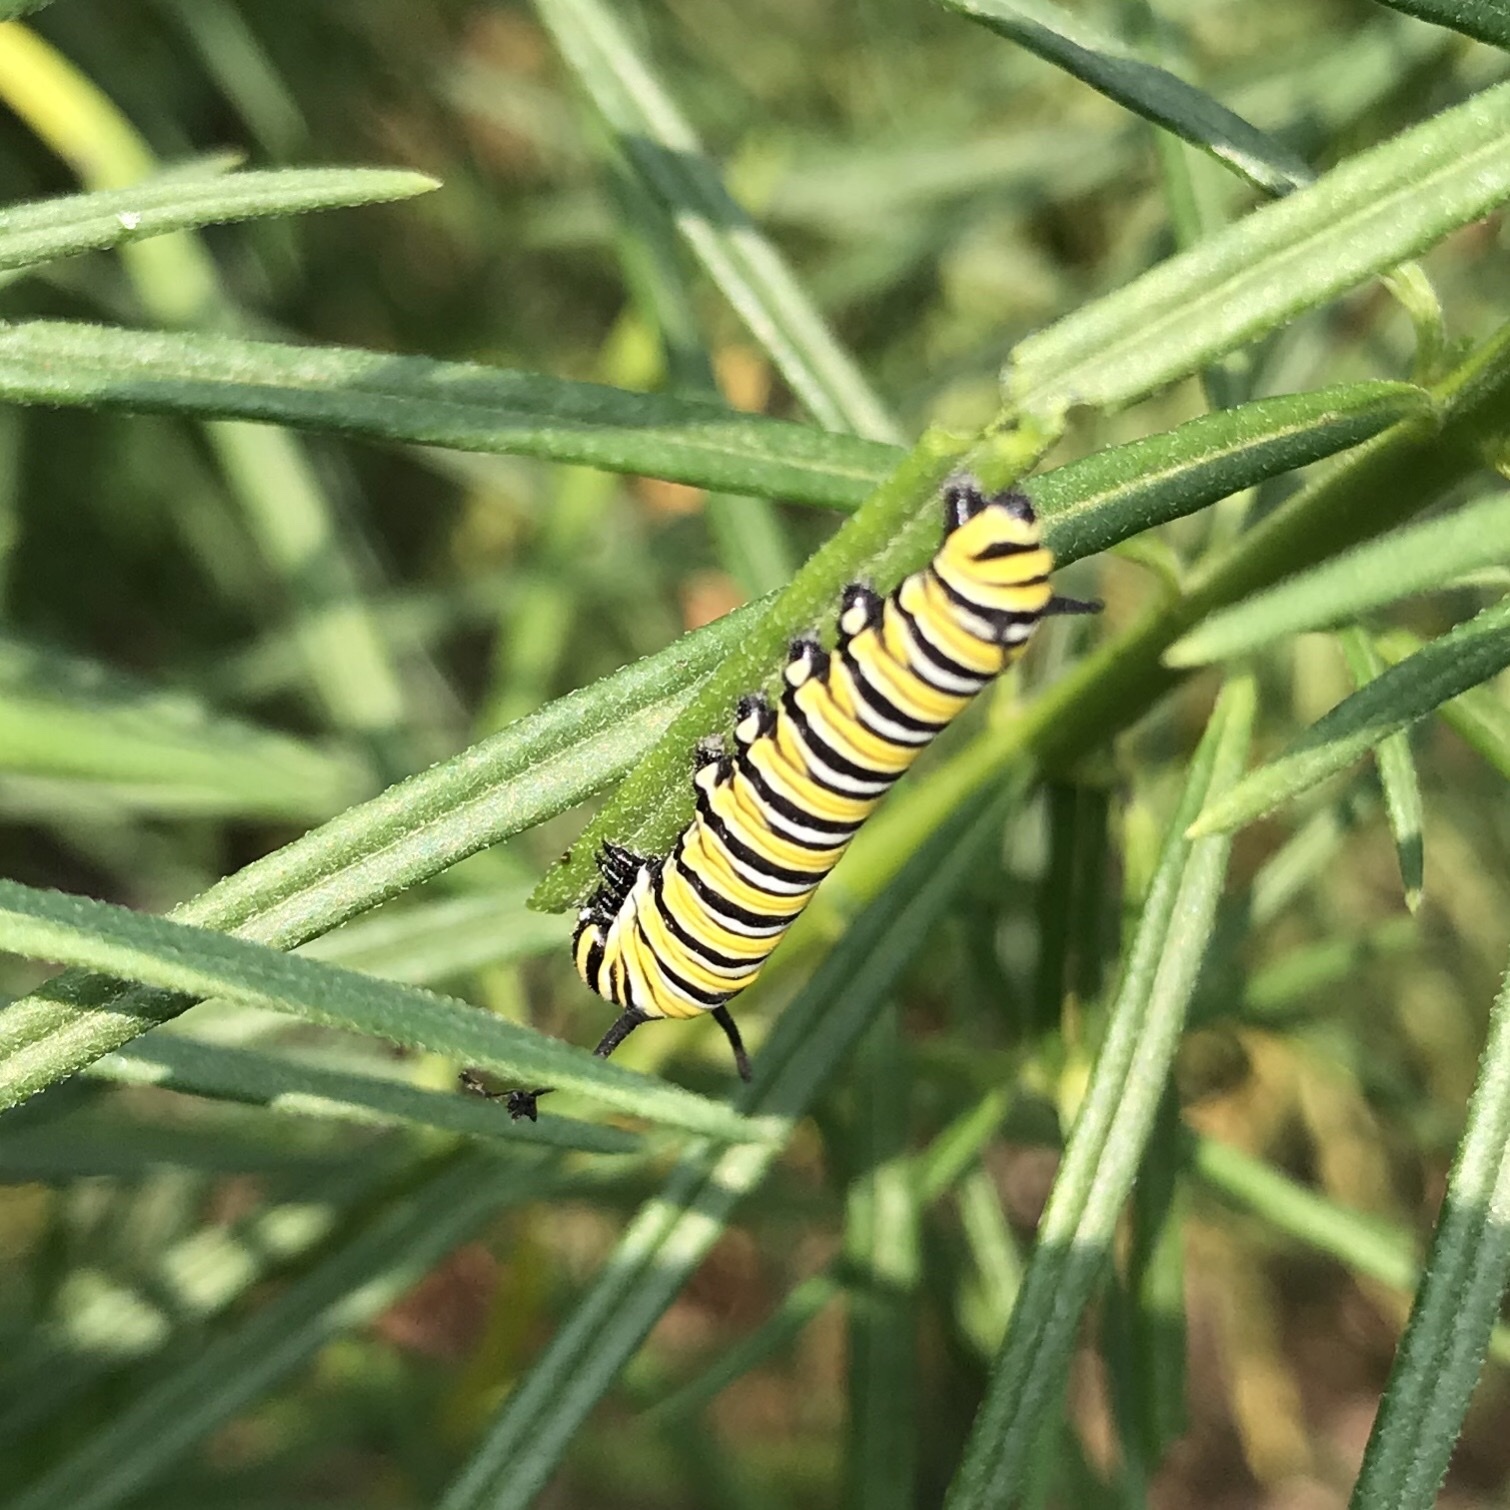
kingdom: Animalia
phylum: Arthropoda
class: Insecta
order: Lepidoptera
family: Nymphalidae
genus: Danaus
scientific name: Danaus plexippus
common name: Monarch
